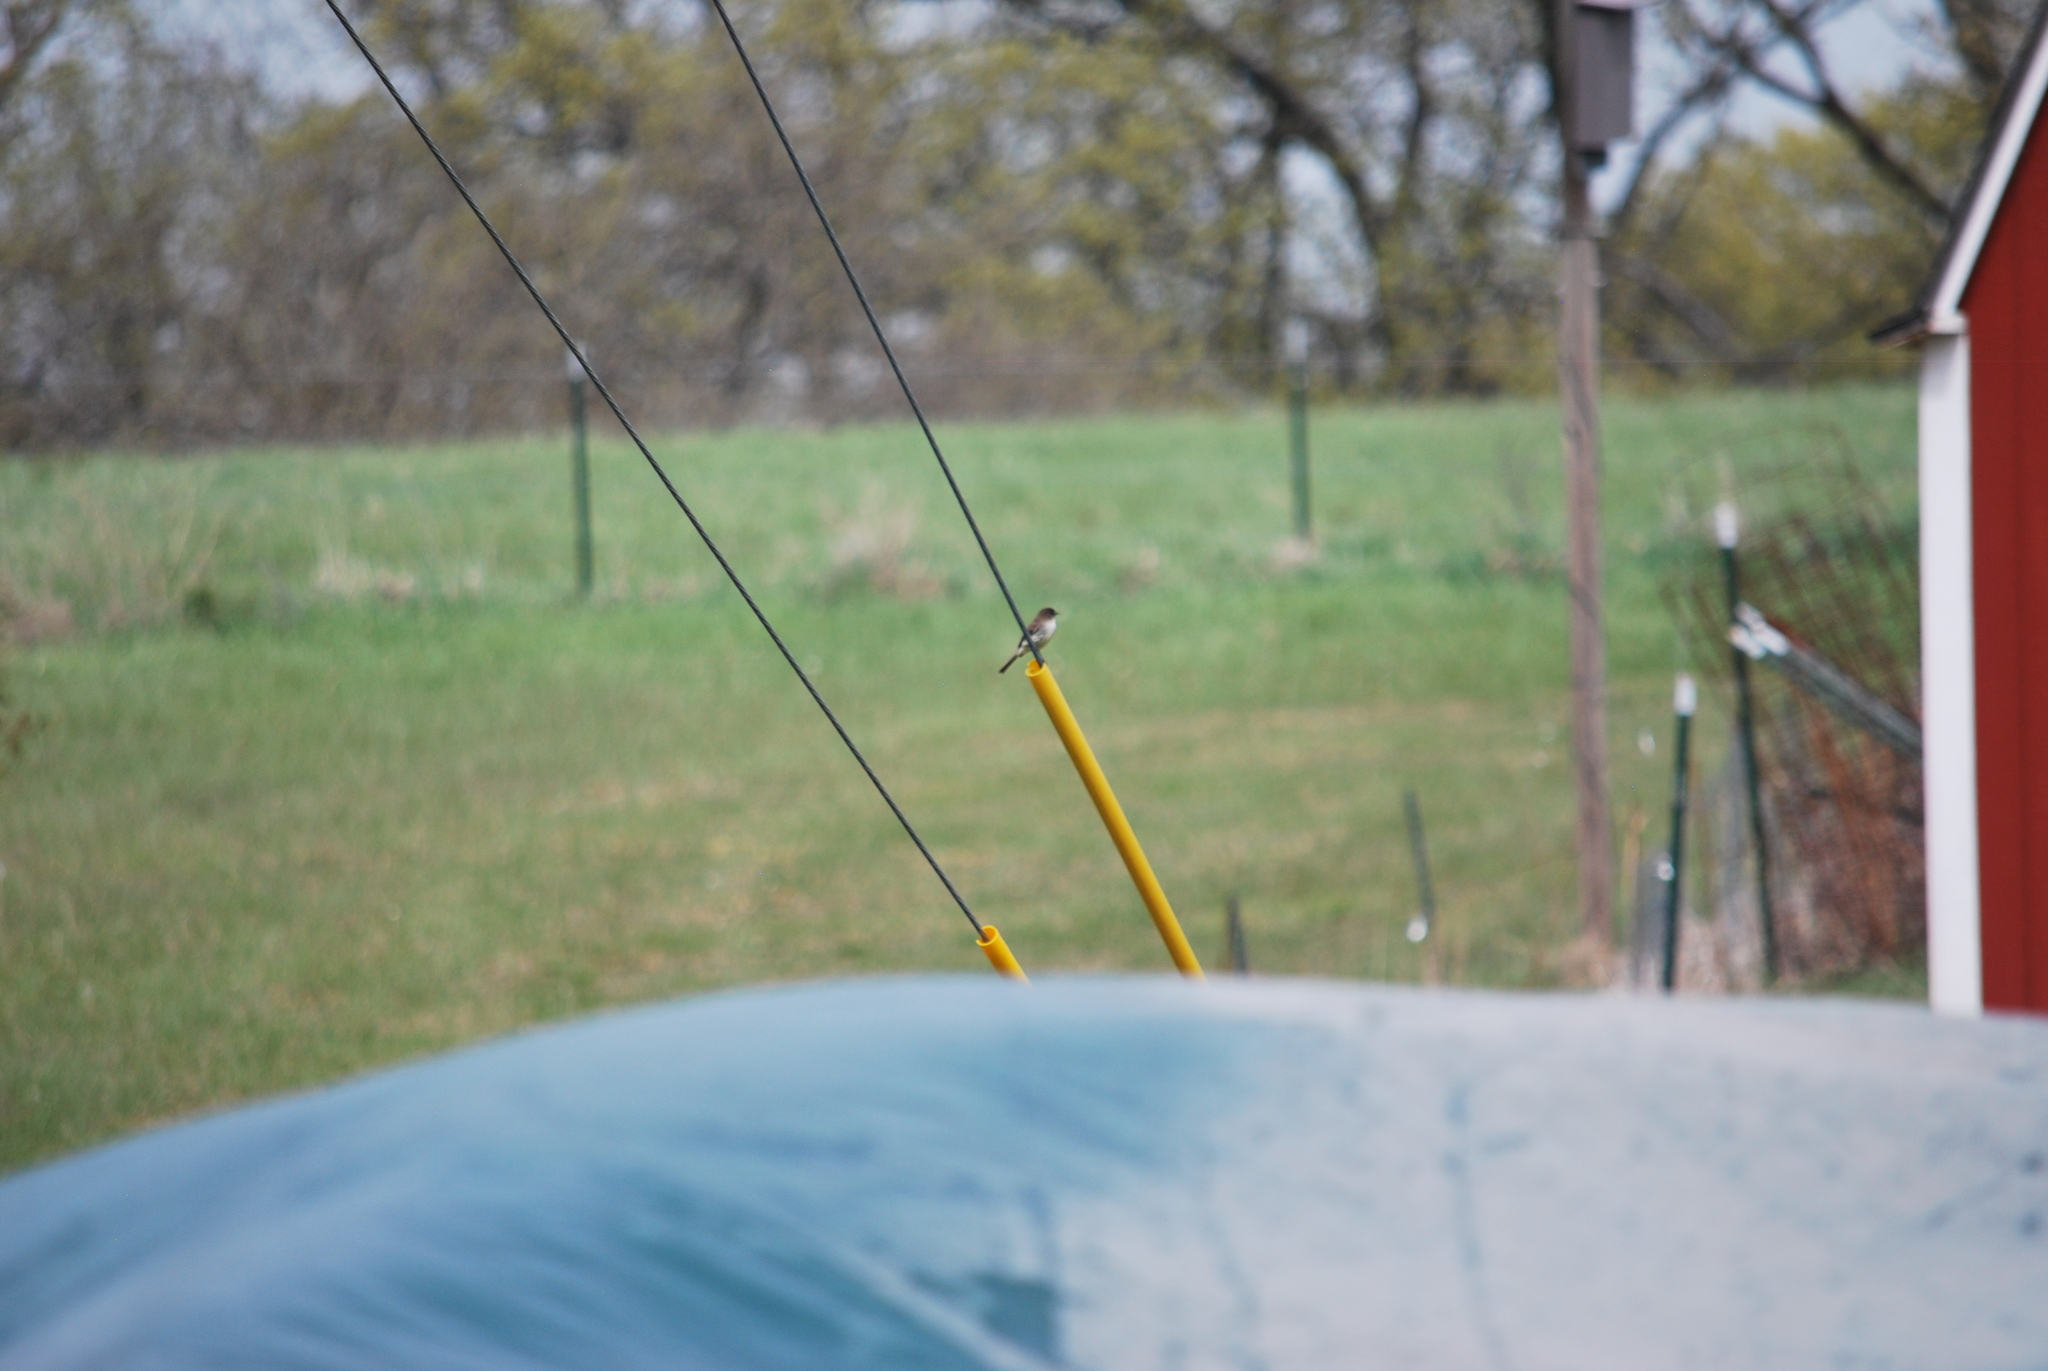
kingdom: Animalia
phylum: Chordata
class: Aves
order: Passeriformes
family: Tyrannidae
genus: Sayornis
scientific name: Sayornis phoebe
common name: Eastern phoebe
